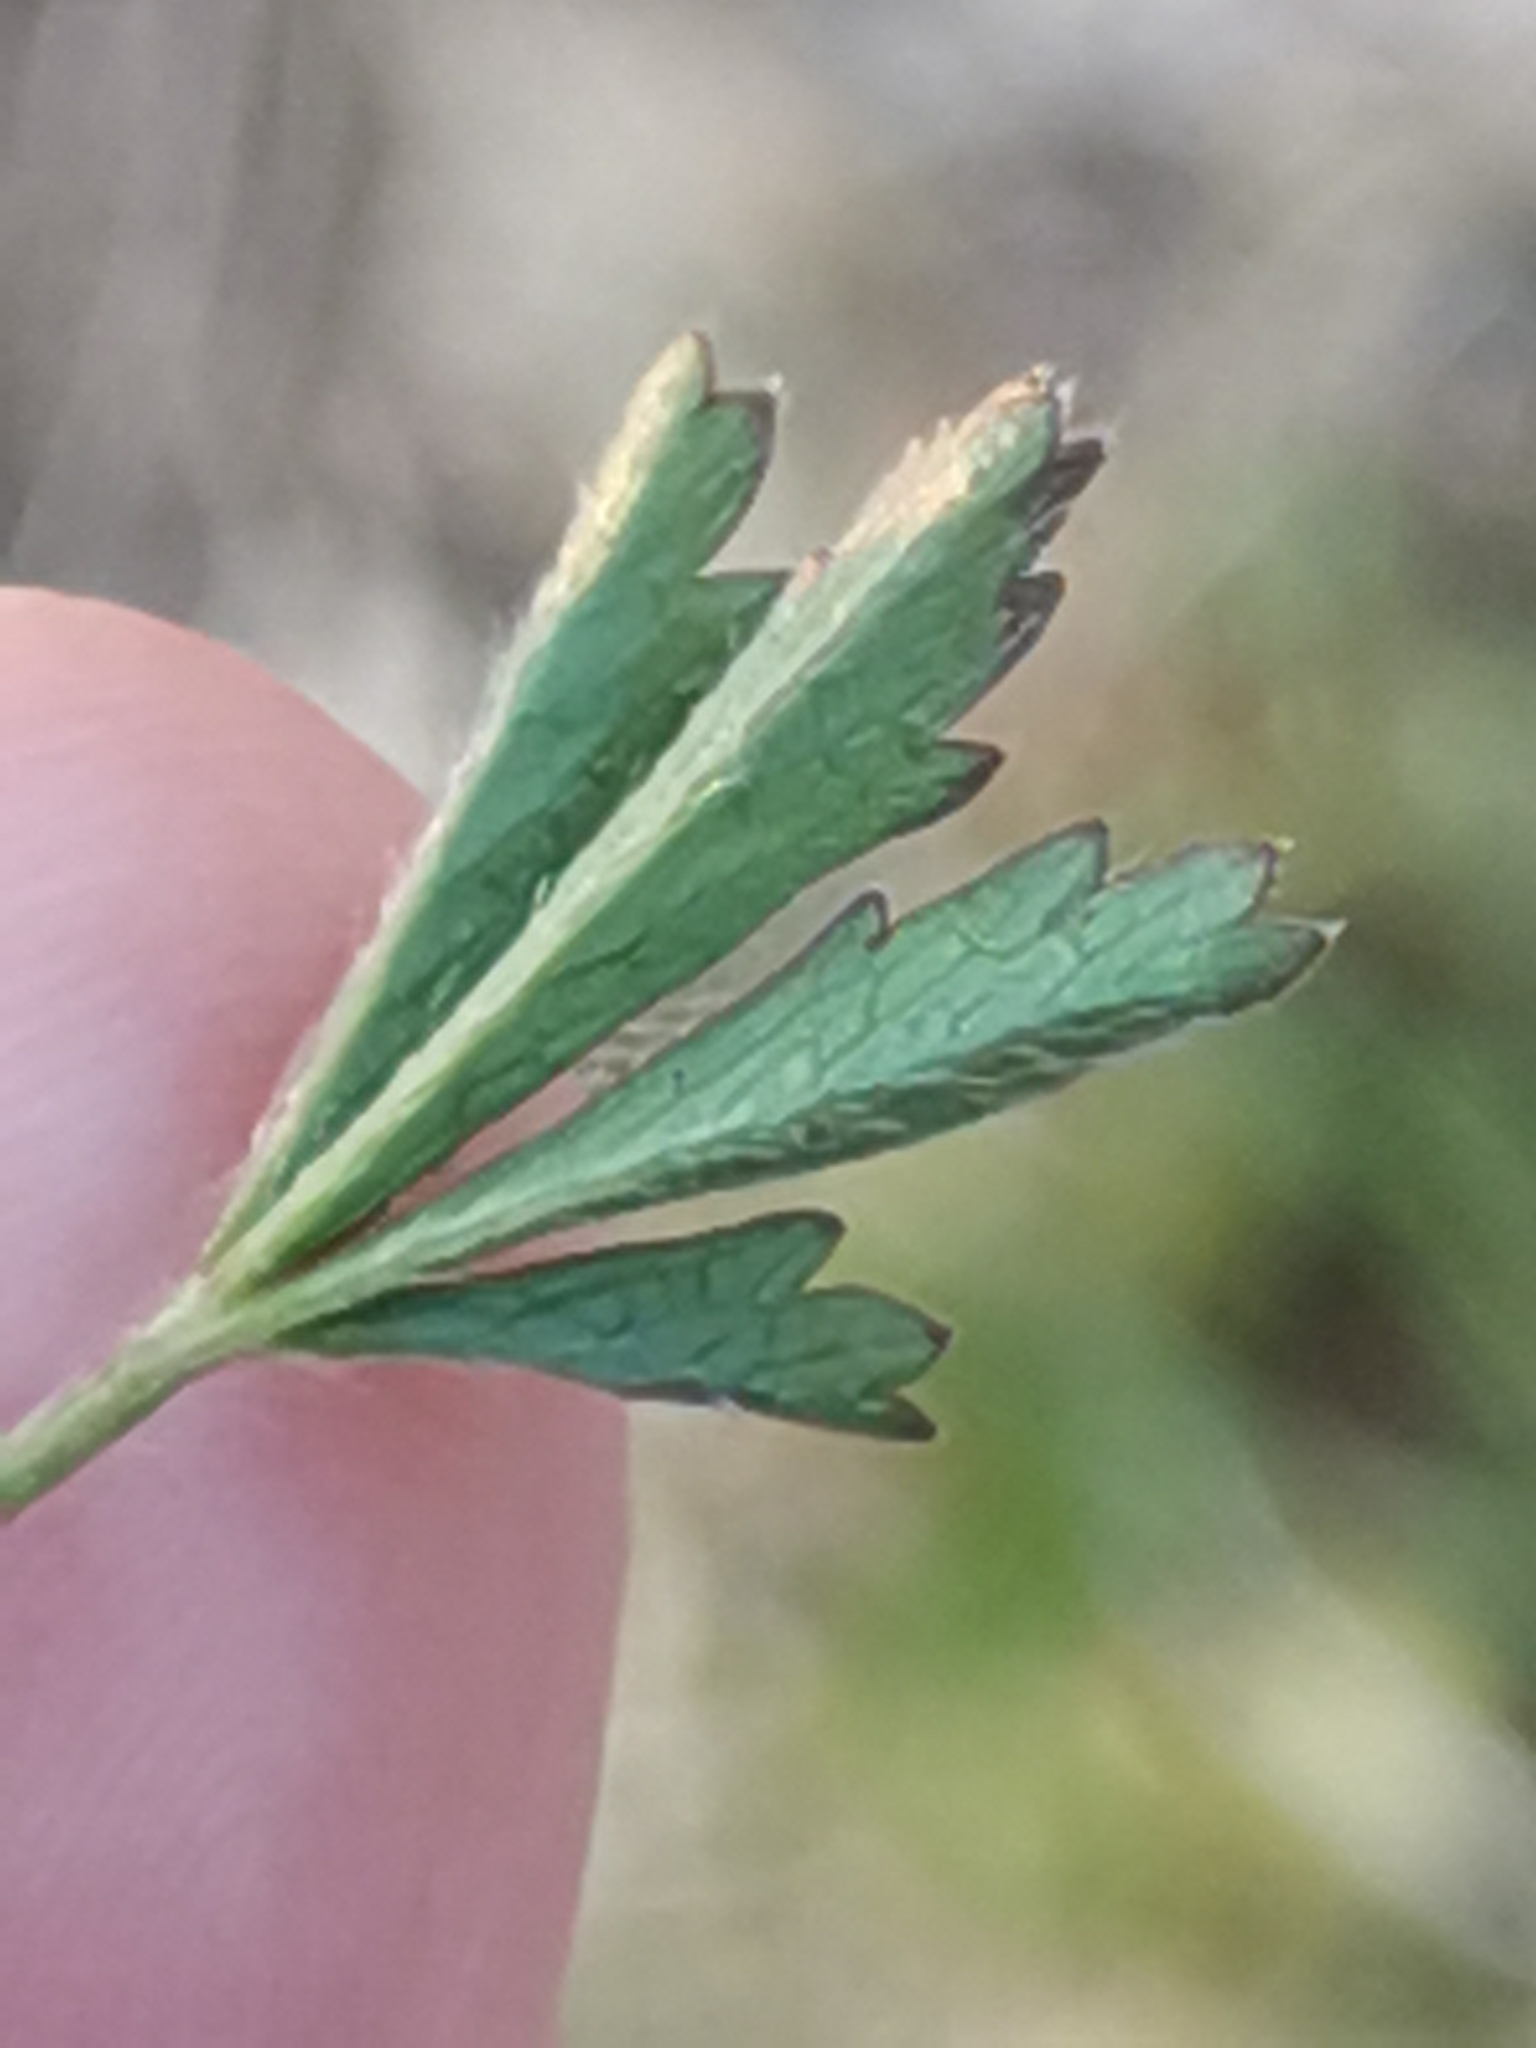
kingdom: Plantae
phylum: Tracheophyta
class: Magnoliopsida
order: Rosales
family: Rosaceae
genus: Potentilla
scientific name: Potentilla pusilla
